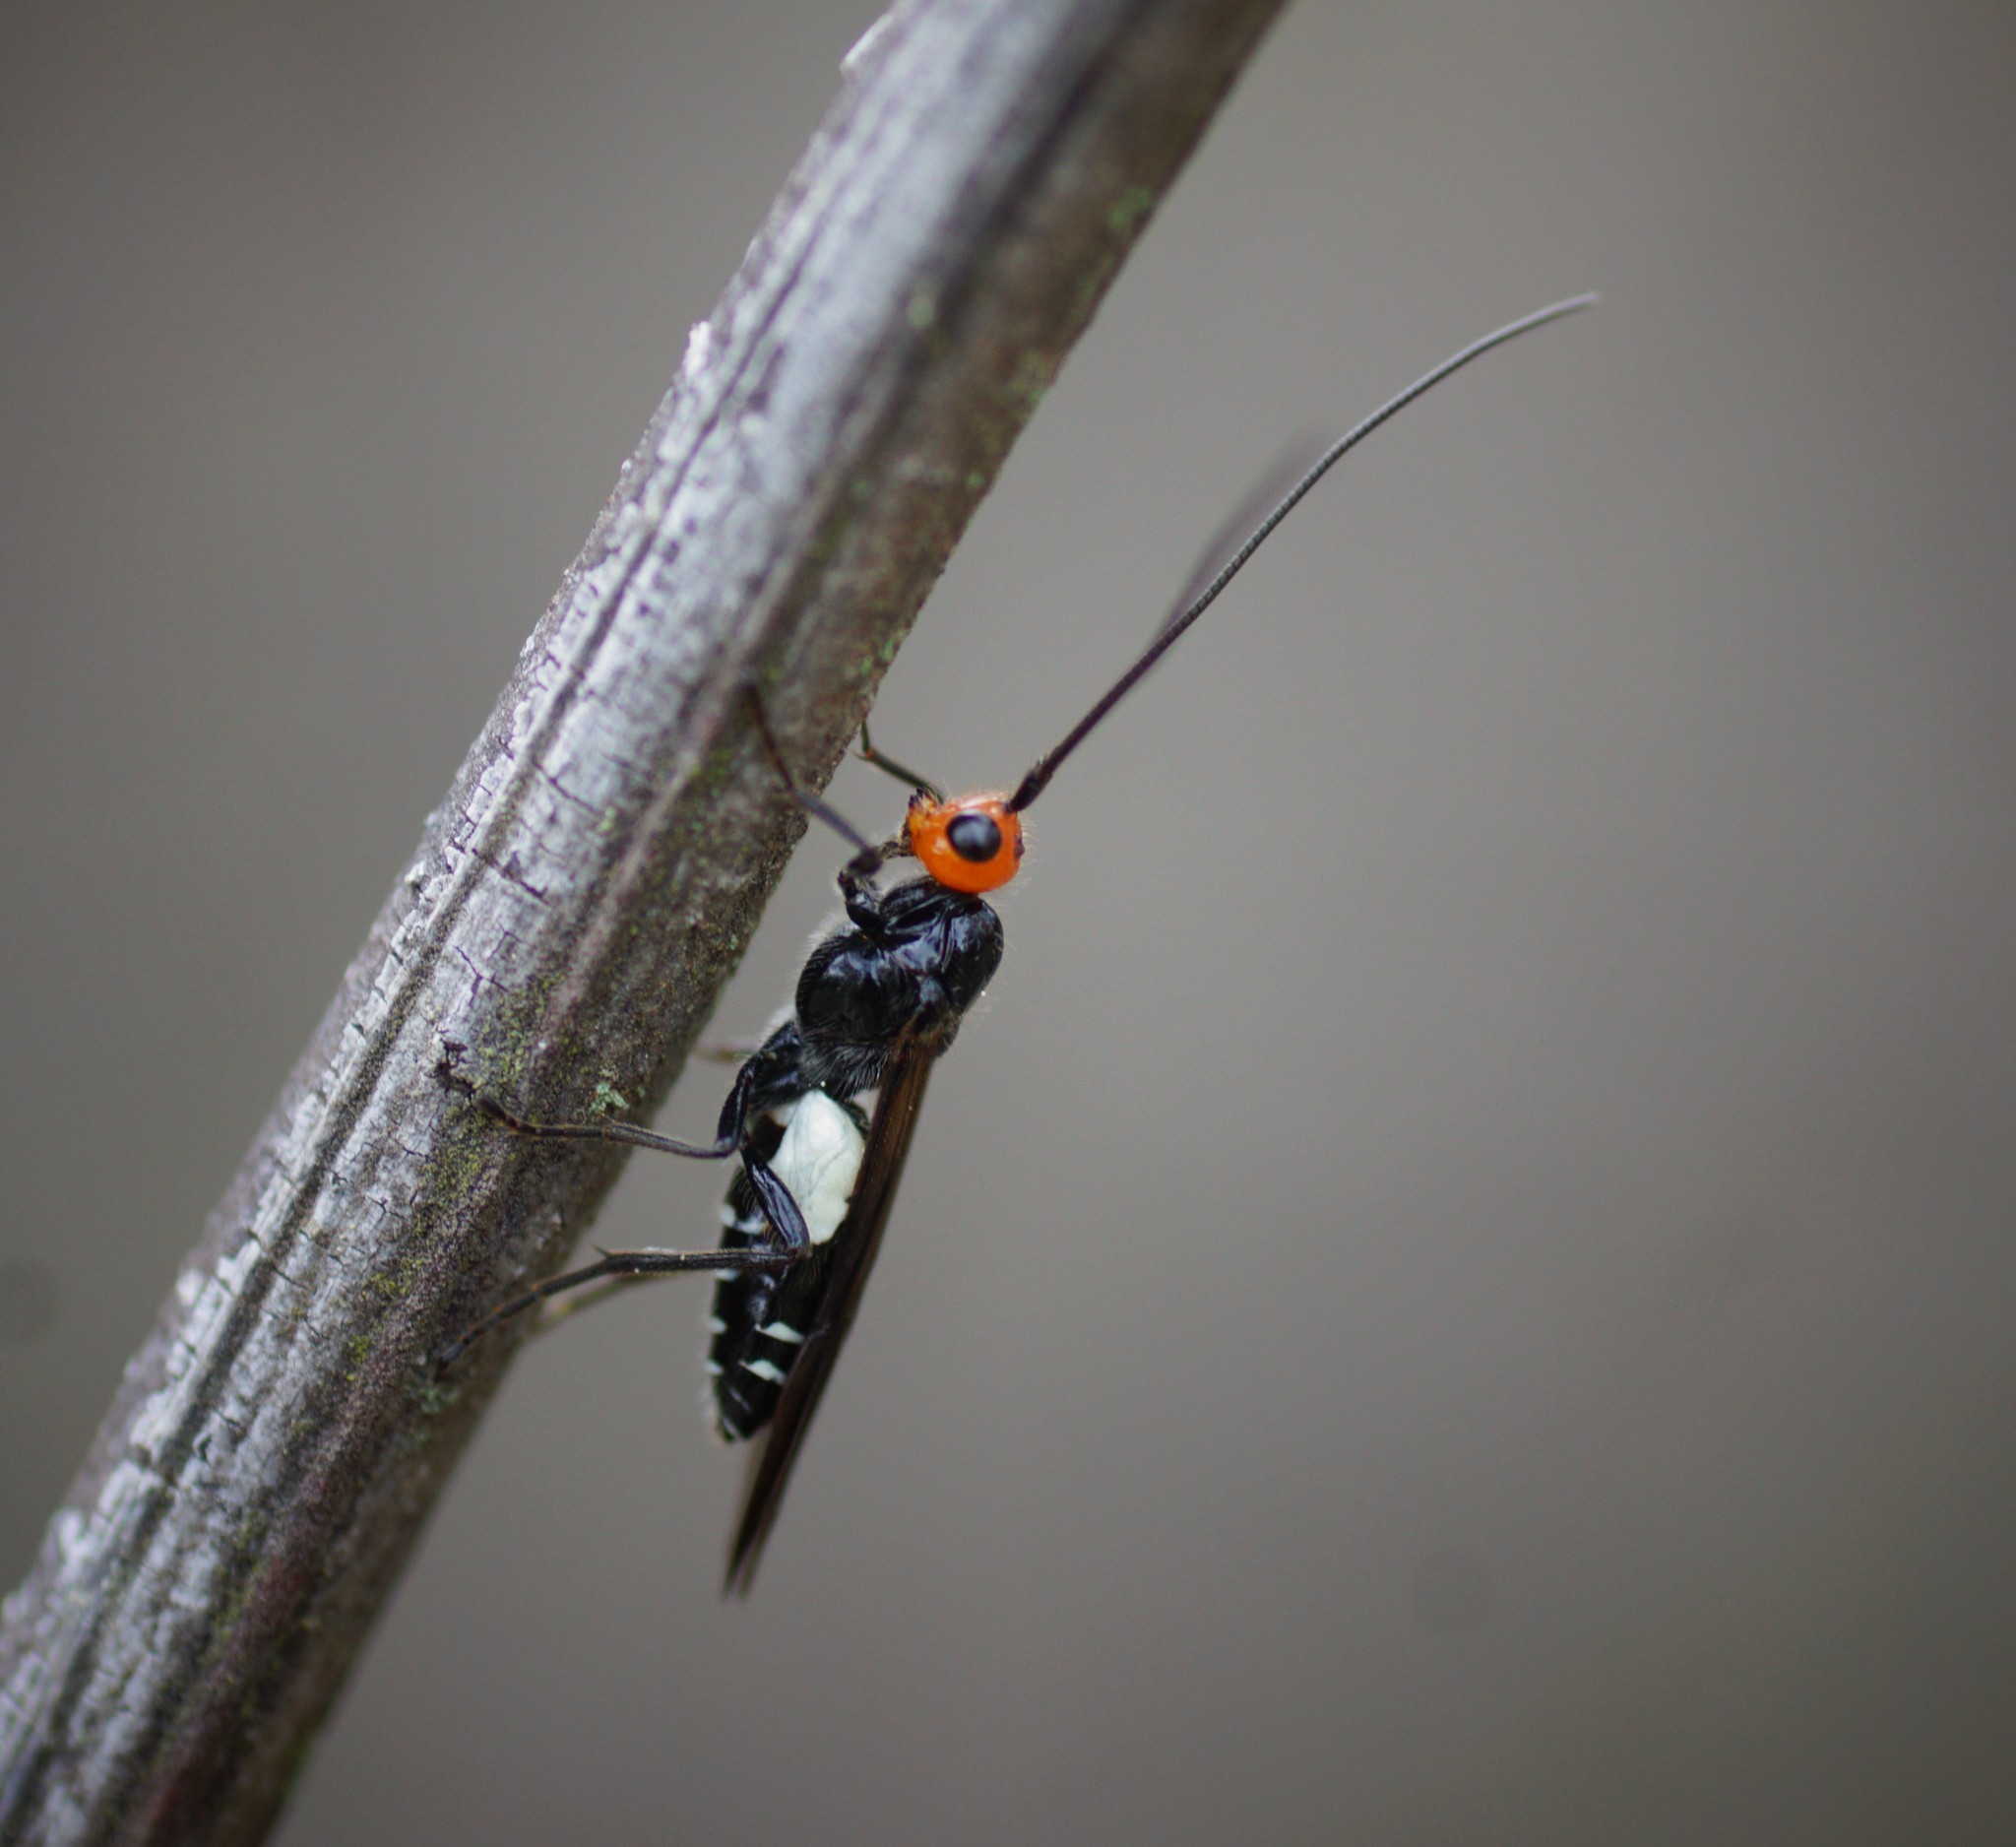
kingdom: Animalia
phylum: Arthropoda
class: Insecta
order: Hymenoptera
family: Braconidae
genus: Callibracon
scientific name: Callibracon capitator
